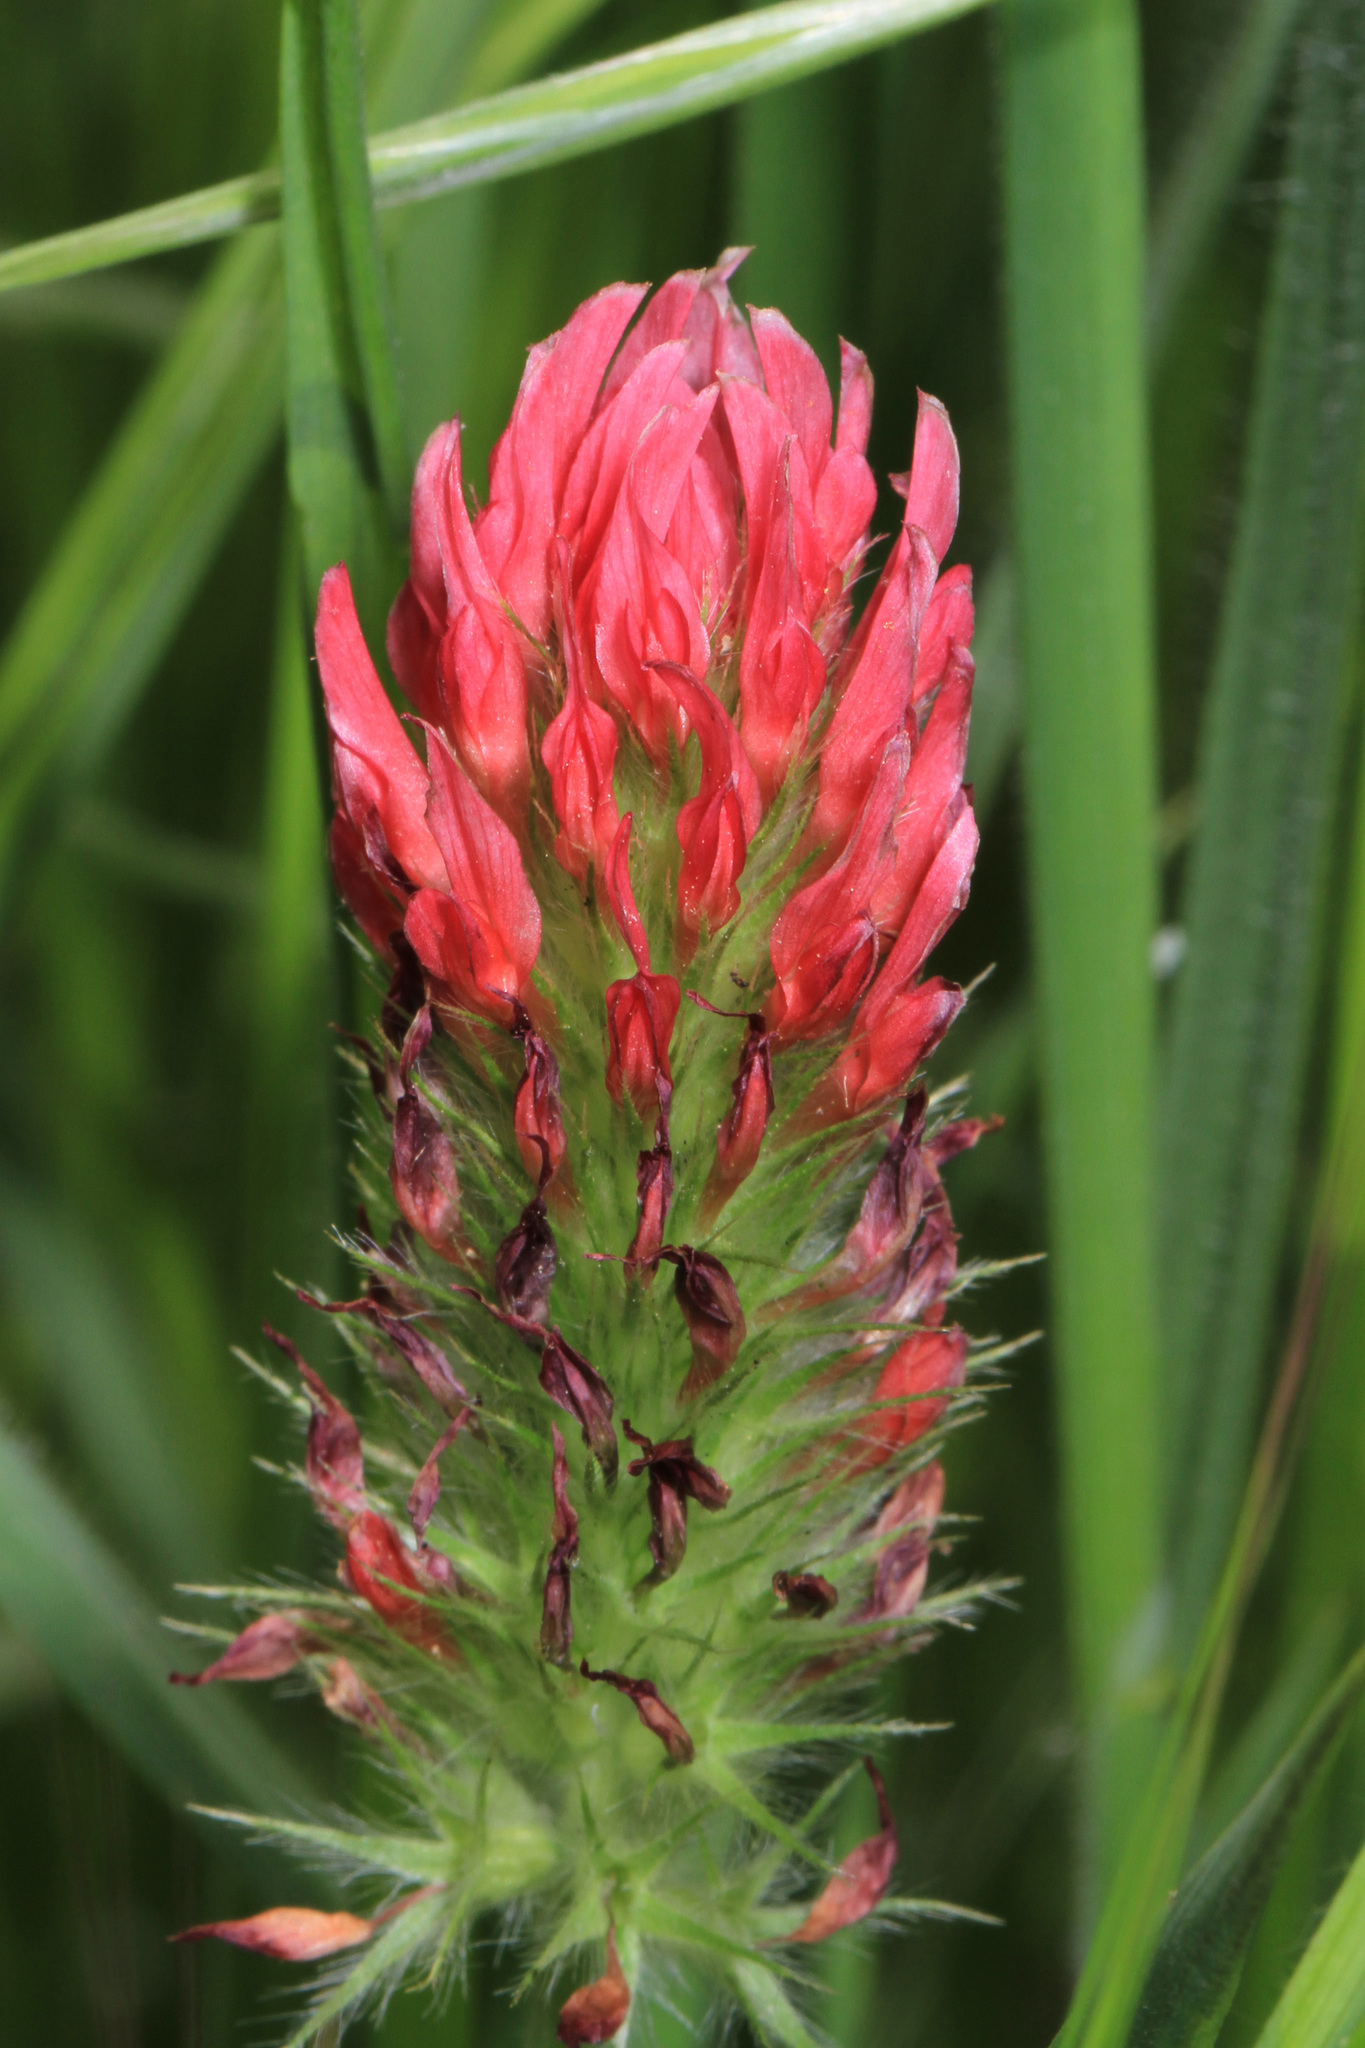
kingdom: Plantae
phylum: Tracheophyta
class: Magnoliopsida
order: Fabales
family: Fabaceae
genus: Trifolium
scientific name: Trifolium incarnatum
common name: Crimson clover
